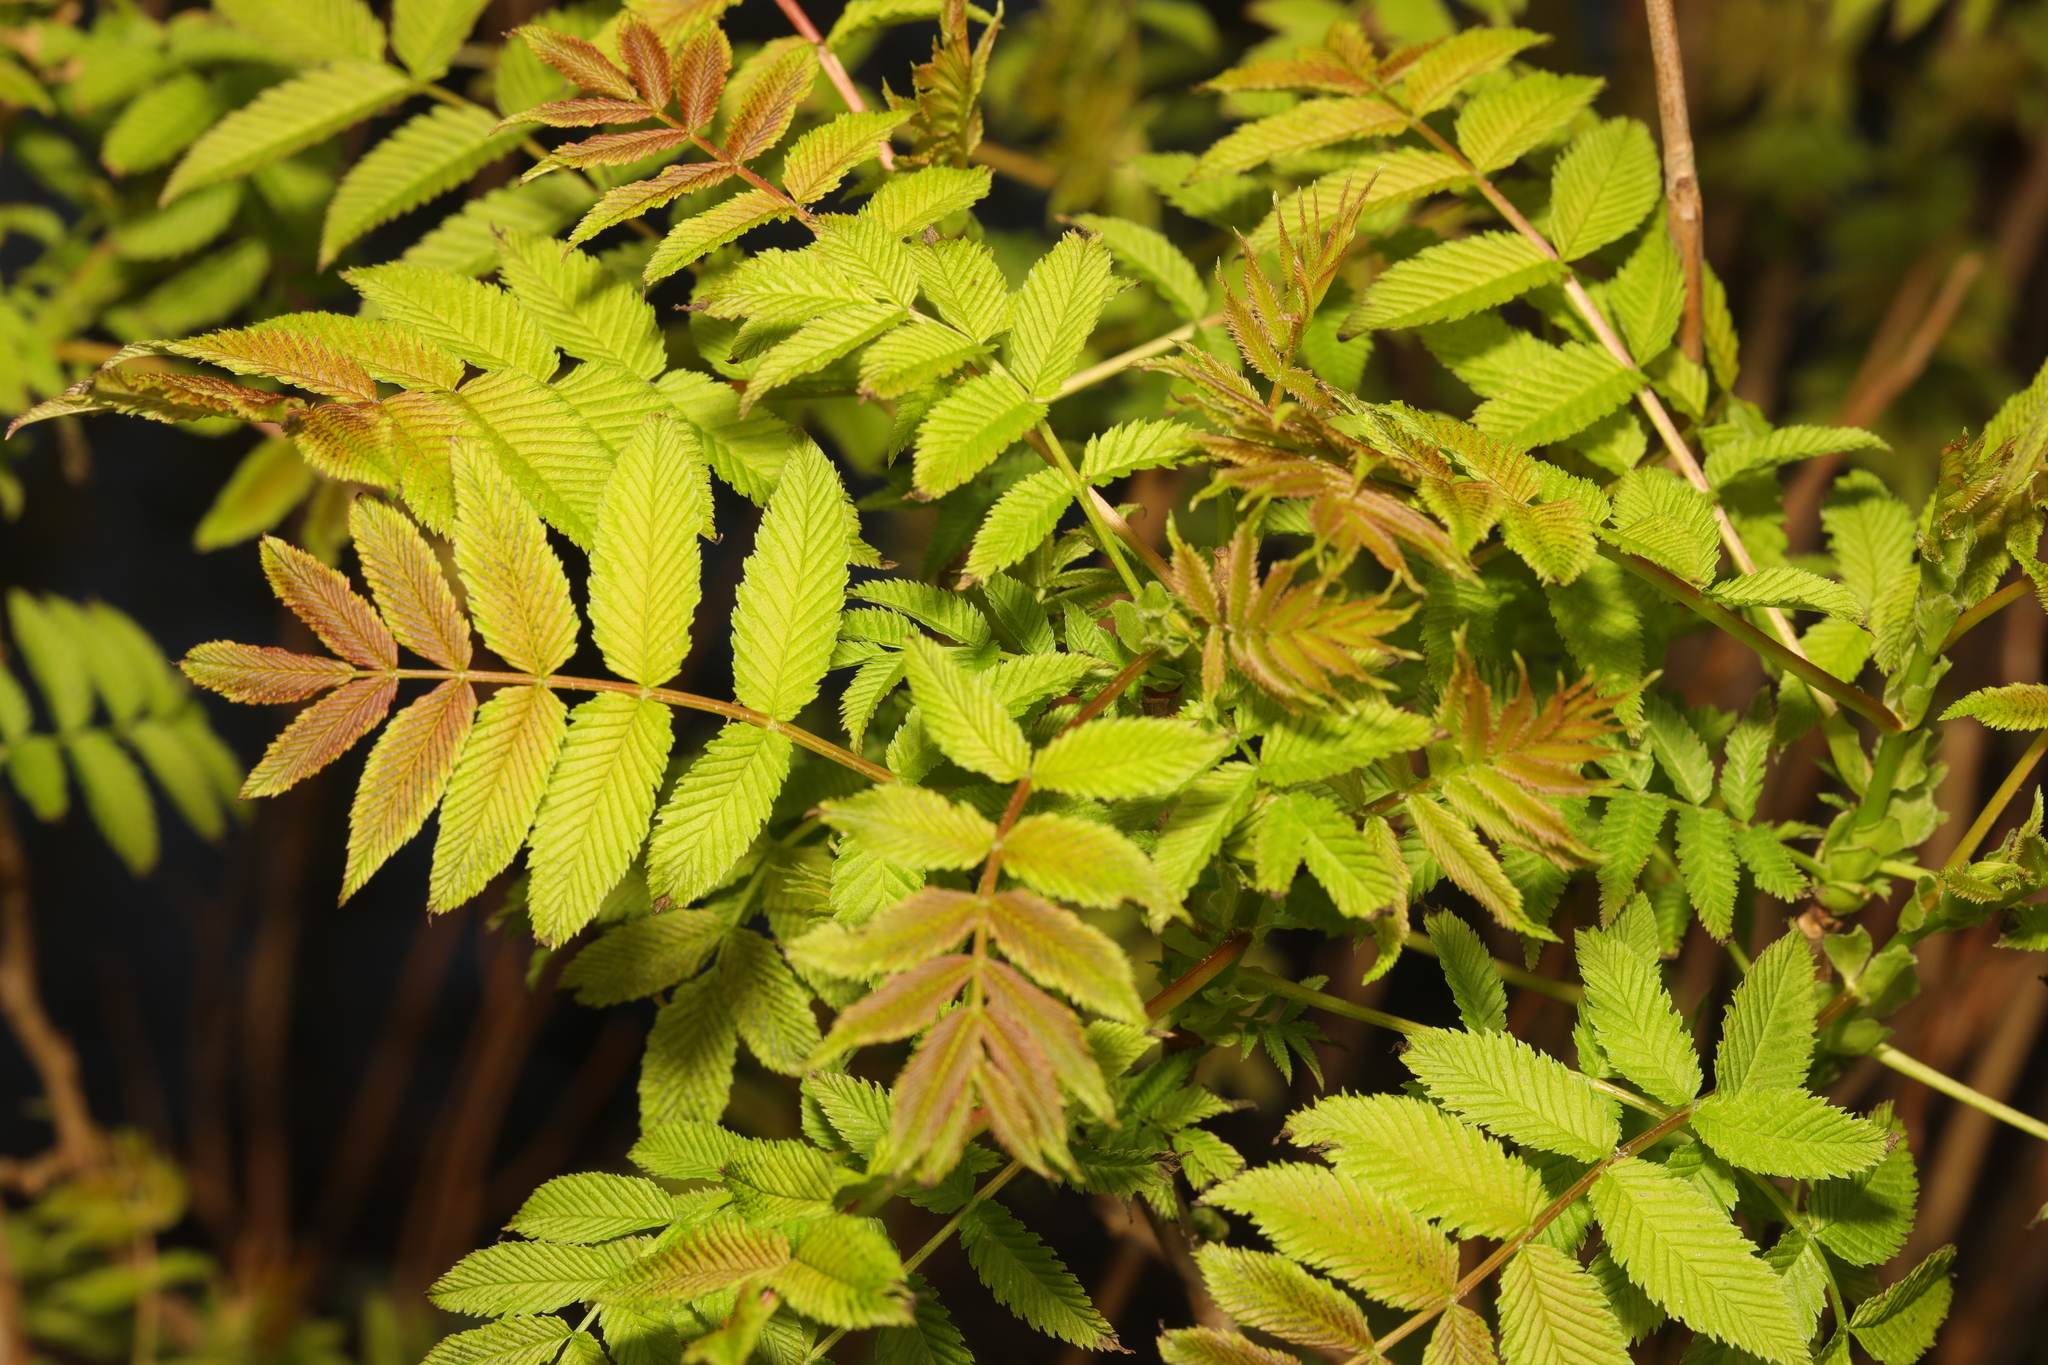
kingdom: Plantae
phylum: Tracheophyta
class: Magnoliopsida
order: Rosales
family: Rosaceae
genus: Sorbus
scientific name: Sorbus aucuparia
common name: Rowan
